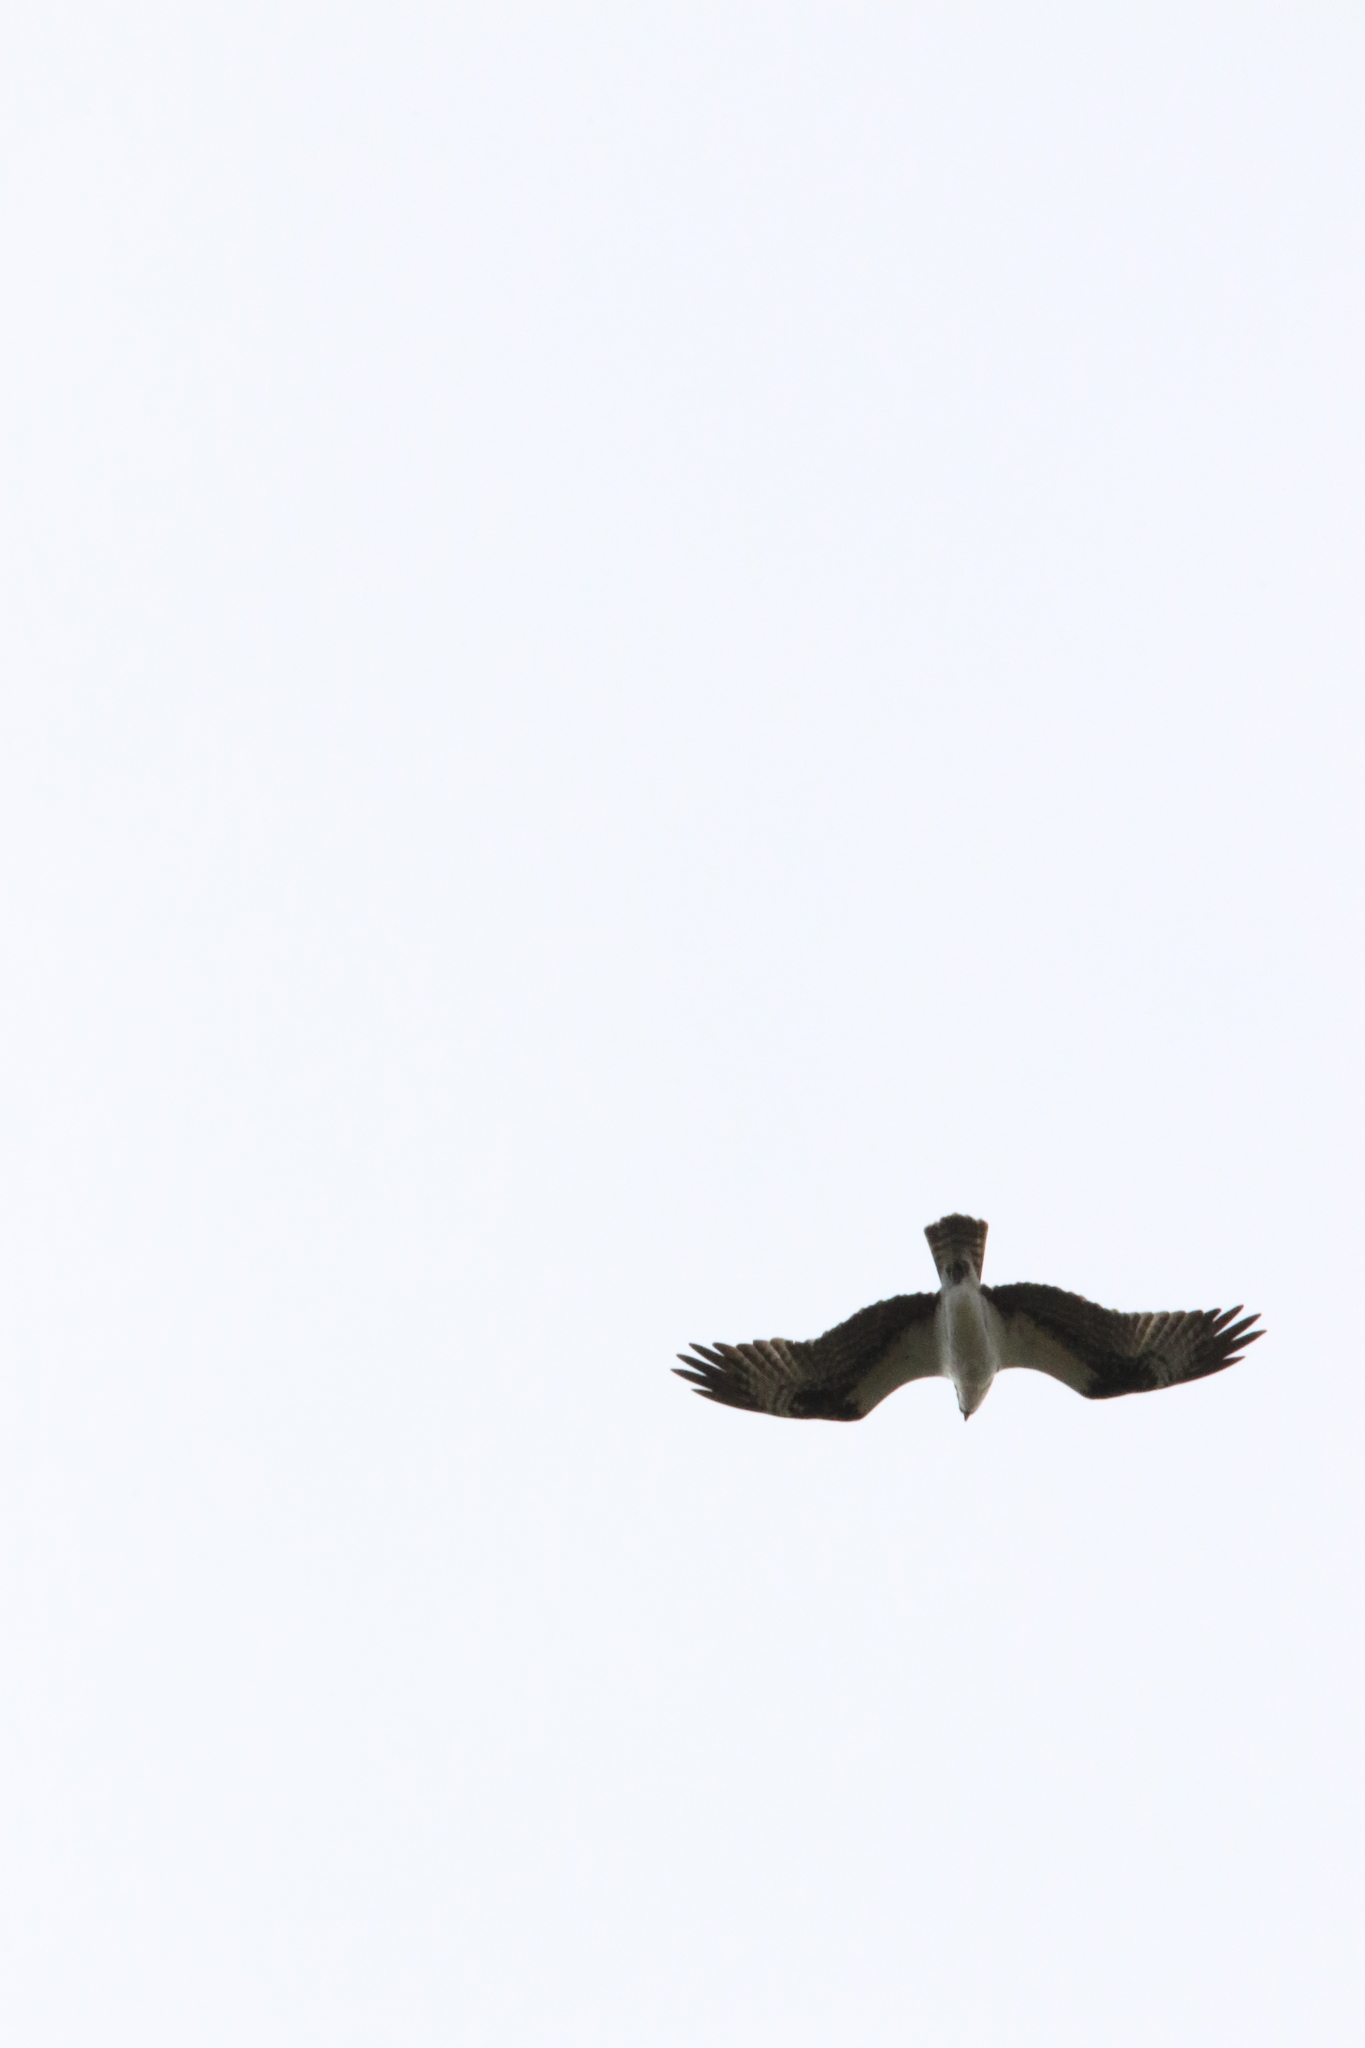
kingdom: Animalia
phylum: Chordata
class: Aves
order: Accipitriformes
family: Pandionidae
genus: Pandion
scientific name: Pandion haliaetus
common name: Osprey
